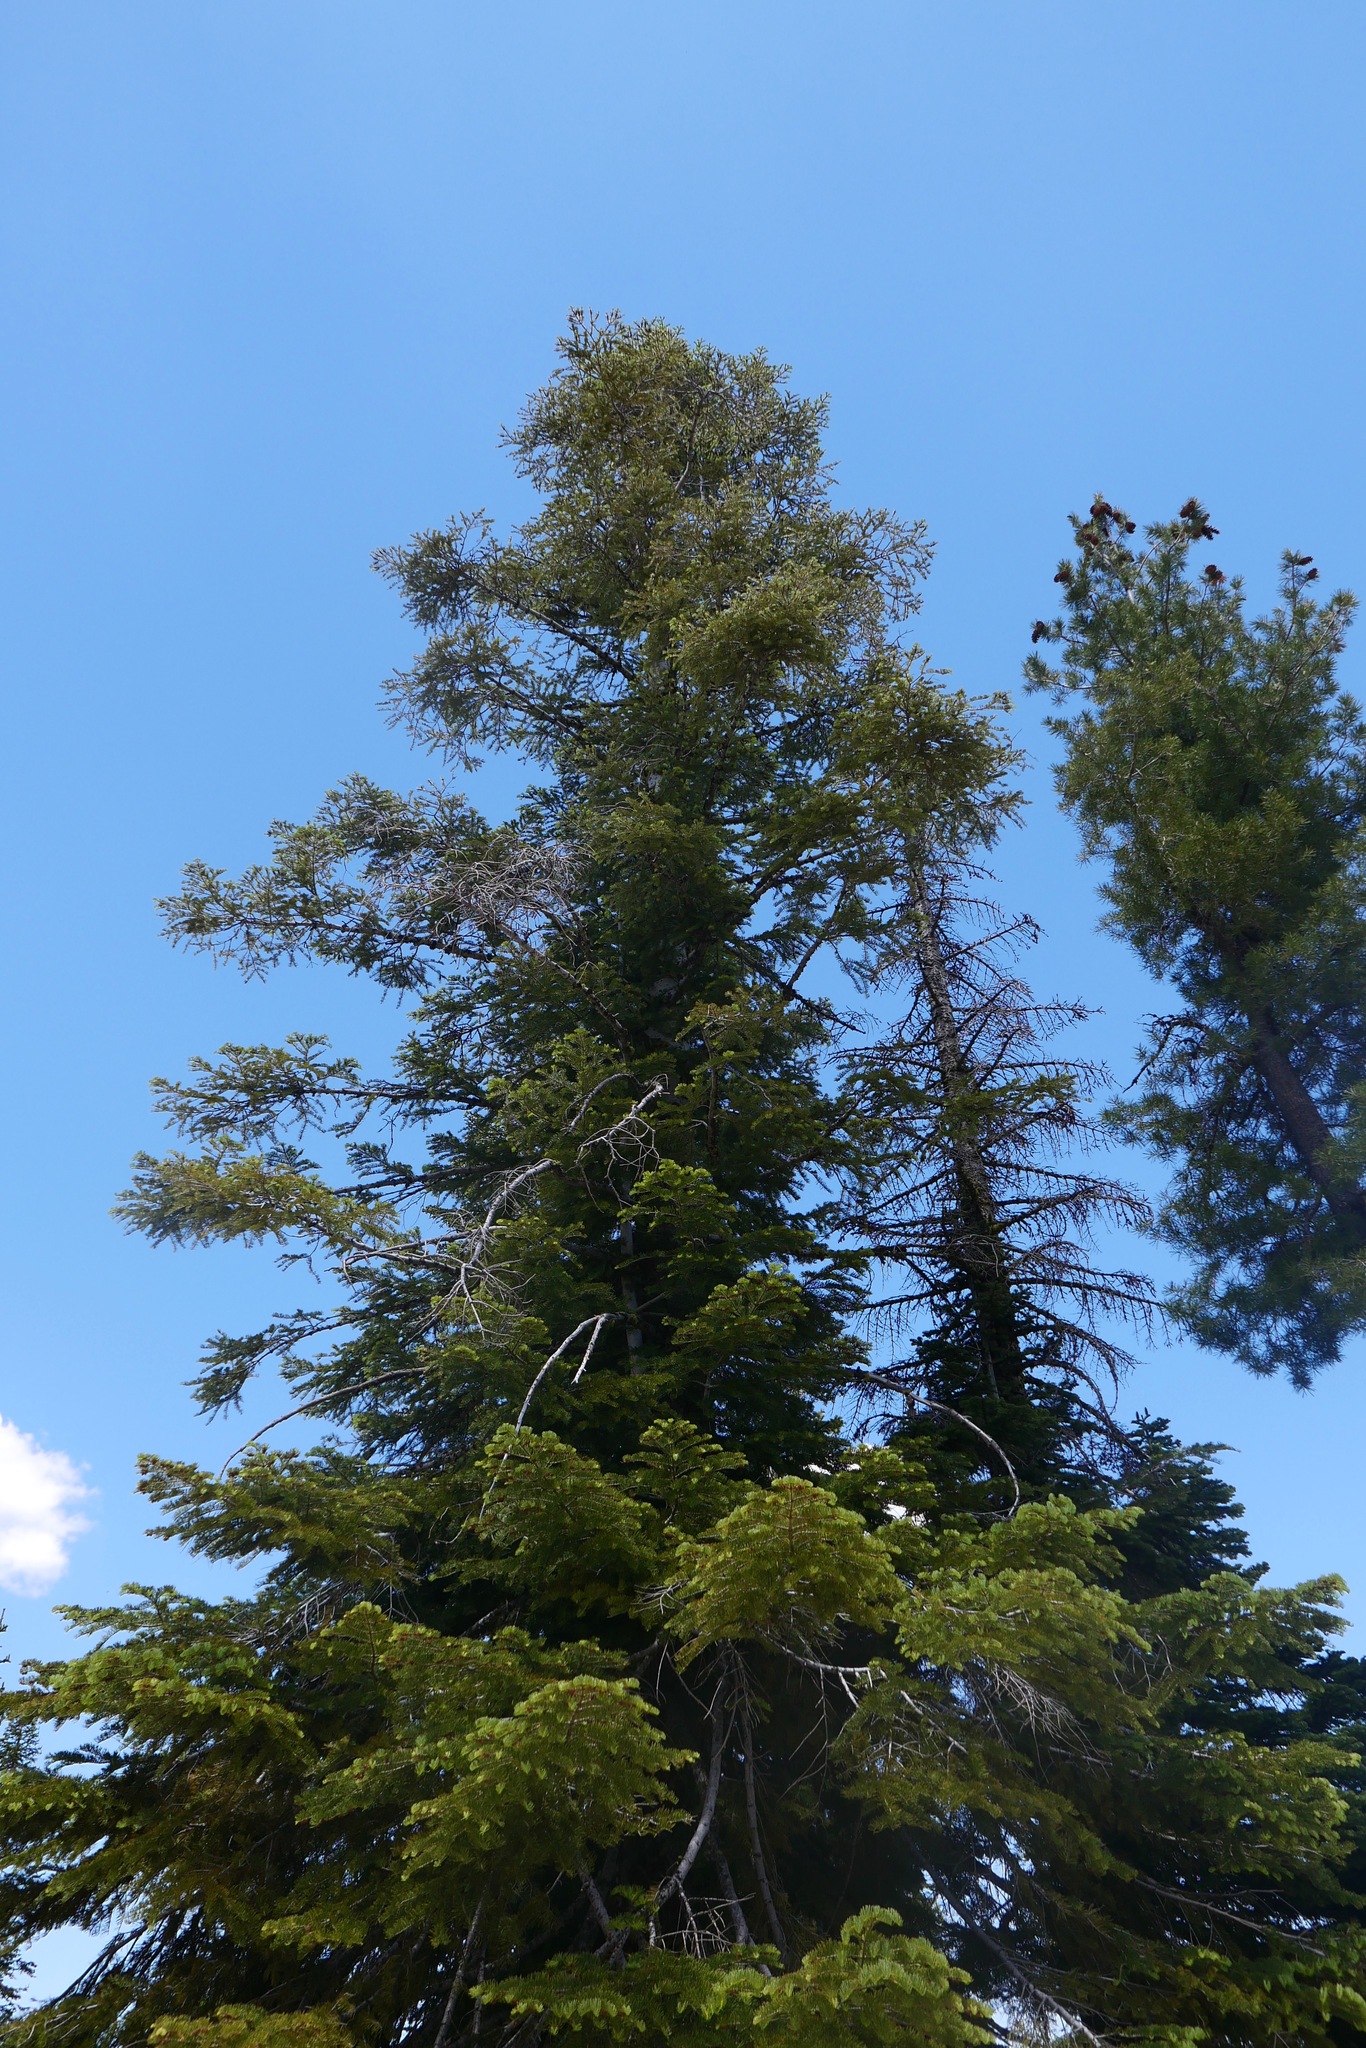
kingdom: Plantae
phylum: Tracheophyta
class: Pinopsida
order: Pinales
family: Pinaceae
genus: Abies
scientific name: Abies concolor
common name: Colorado fir
